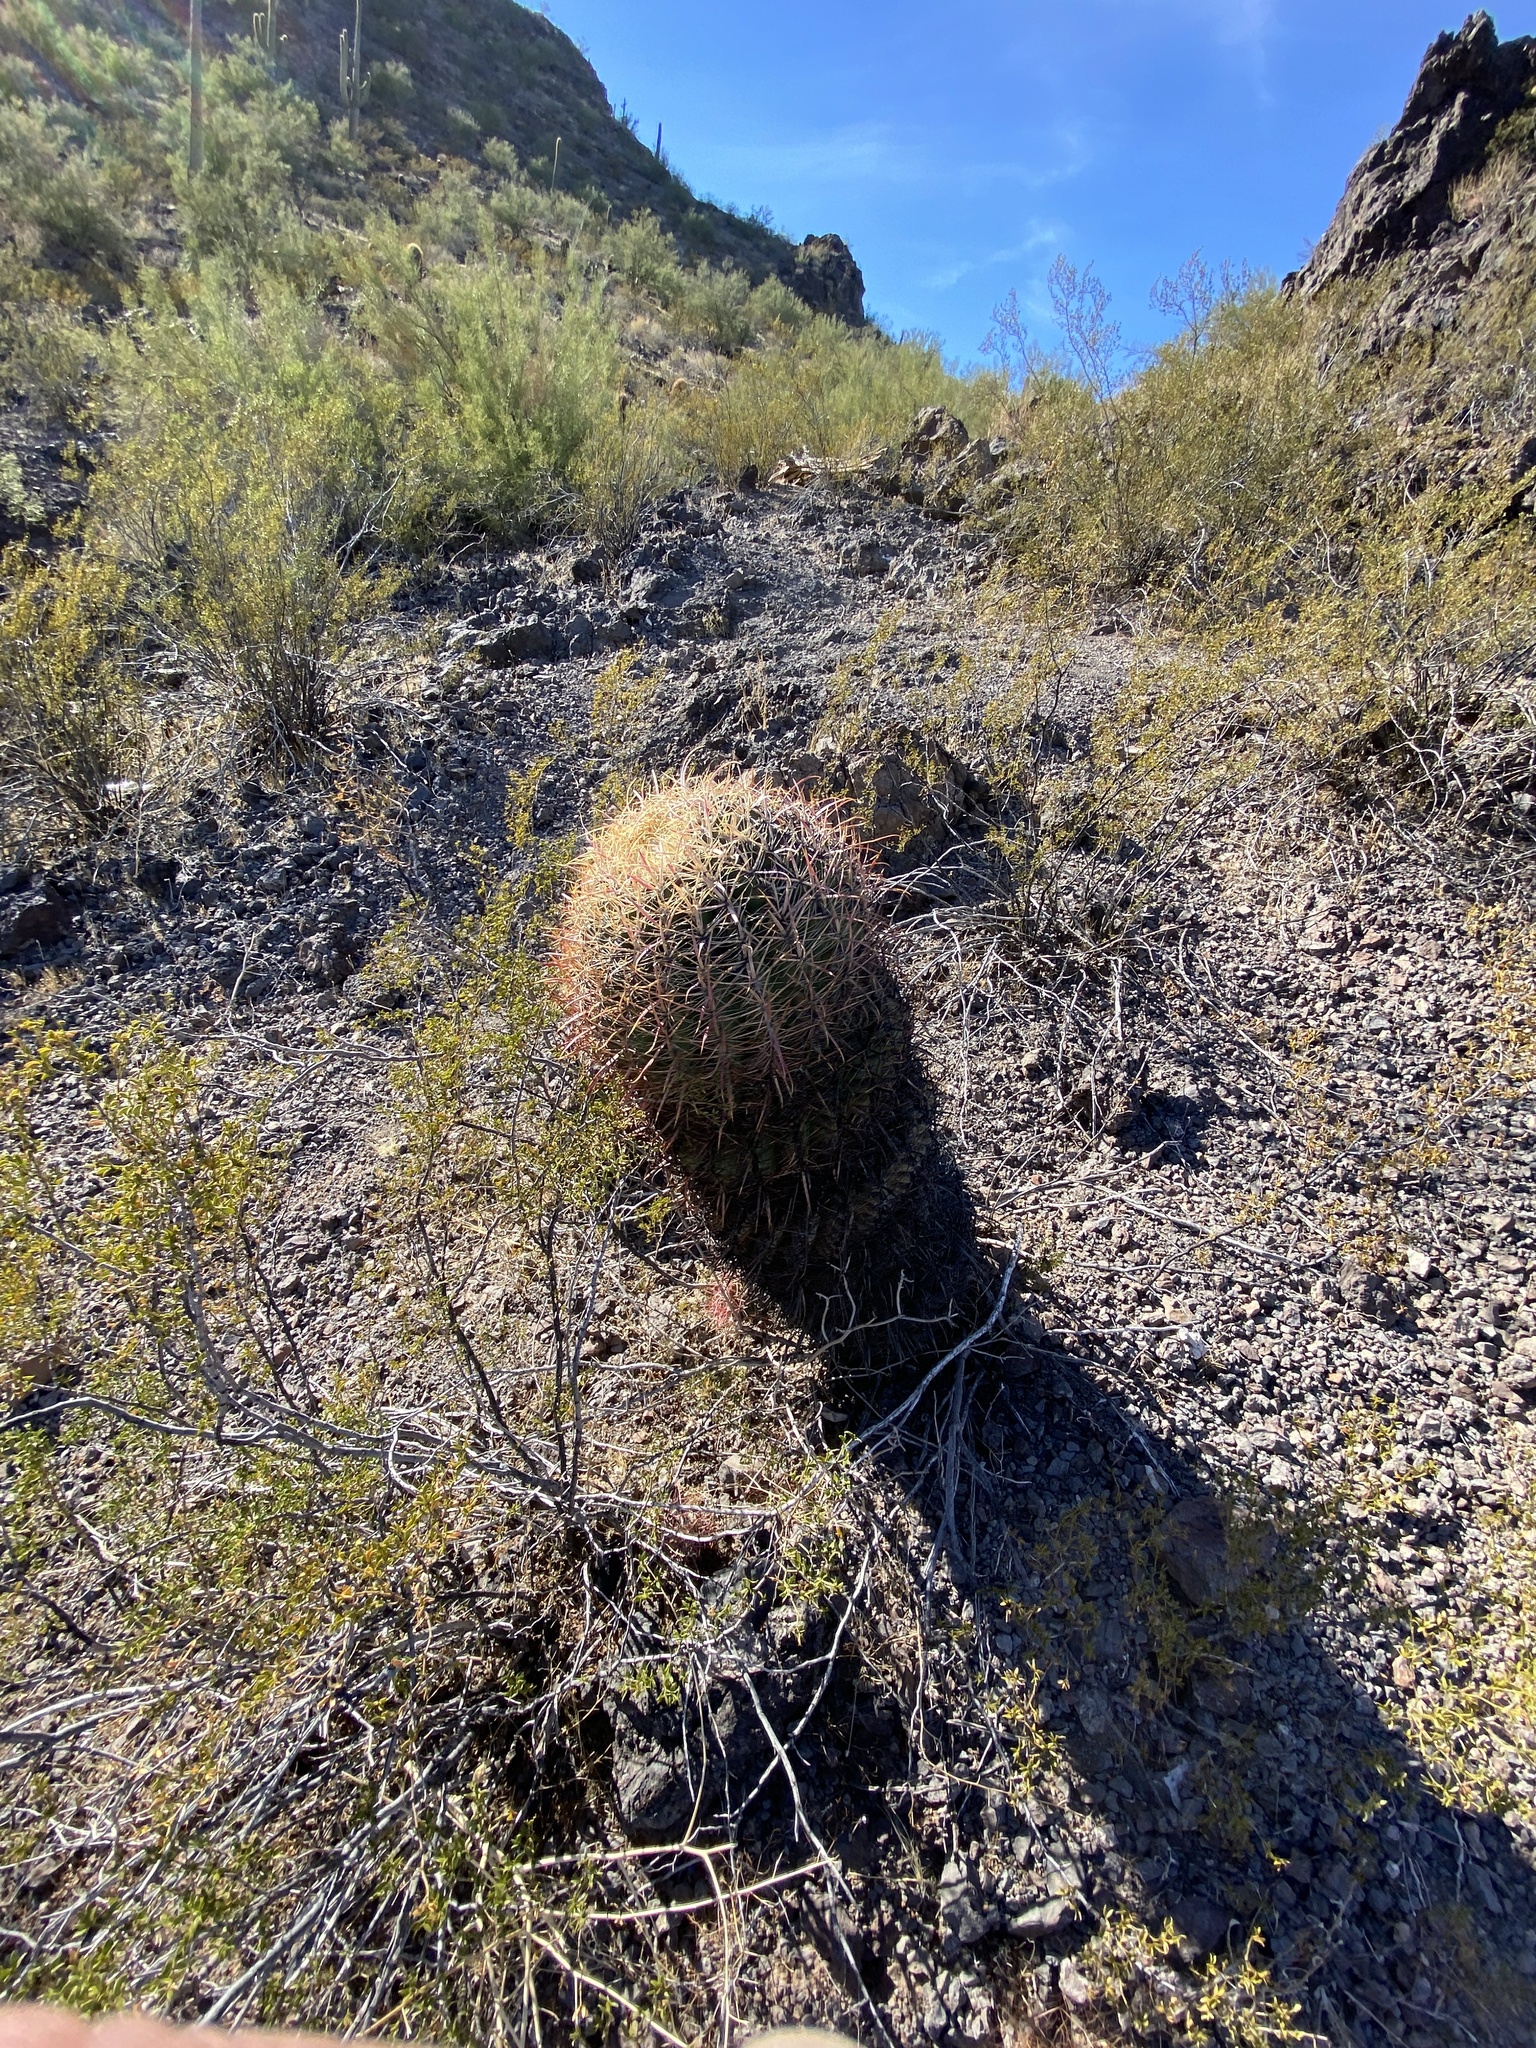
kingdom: Plantae
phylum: Tracheophyta
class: Magnoliopsida
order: Caryophyllales
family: Cactaceae
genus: Ferocactus
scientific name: Ferocactus cylindraceus
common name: California barrel cactus
